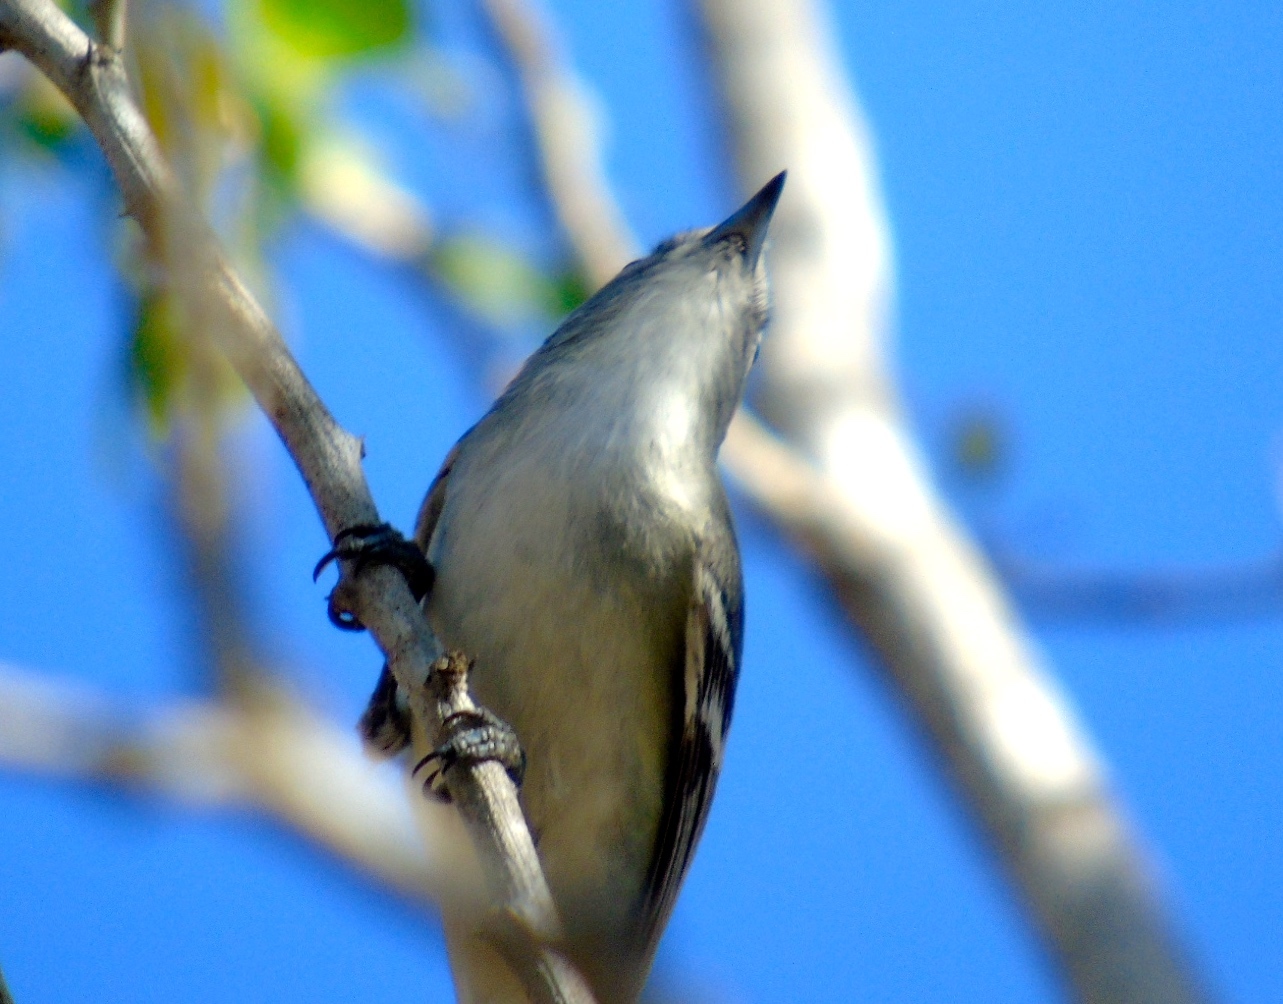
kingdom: Animalia
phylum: Chordata
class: Aves
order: Passeriformes
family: Vireonidae
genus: Vireo
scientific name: Vireo cassinii
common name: Cassin's vireo
